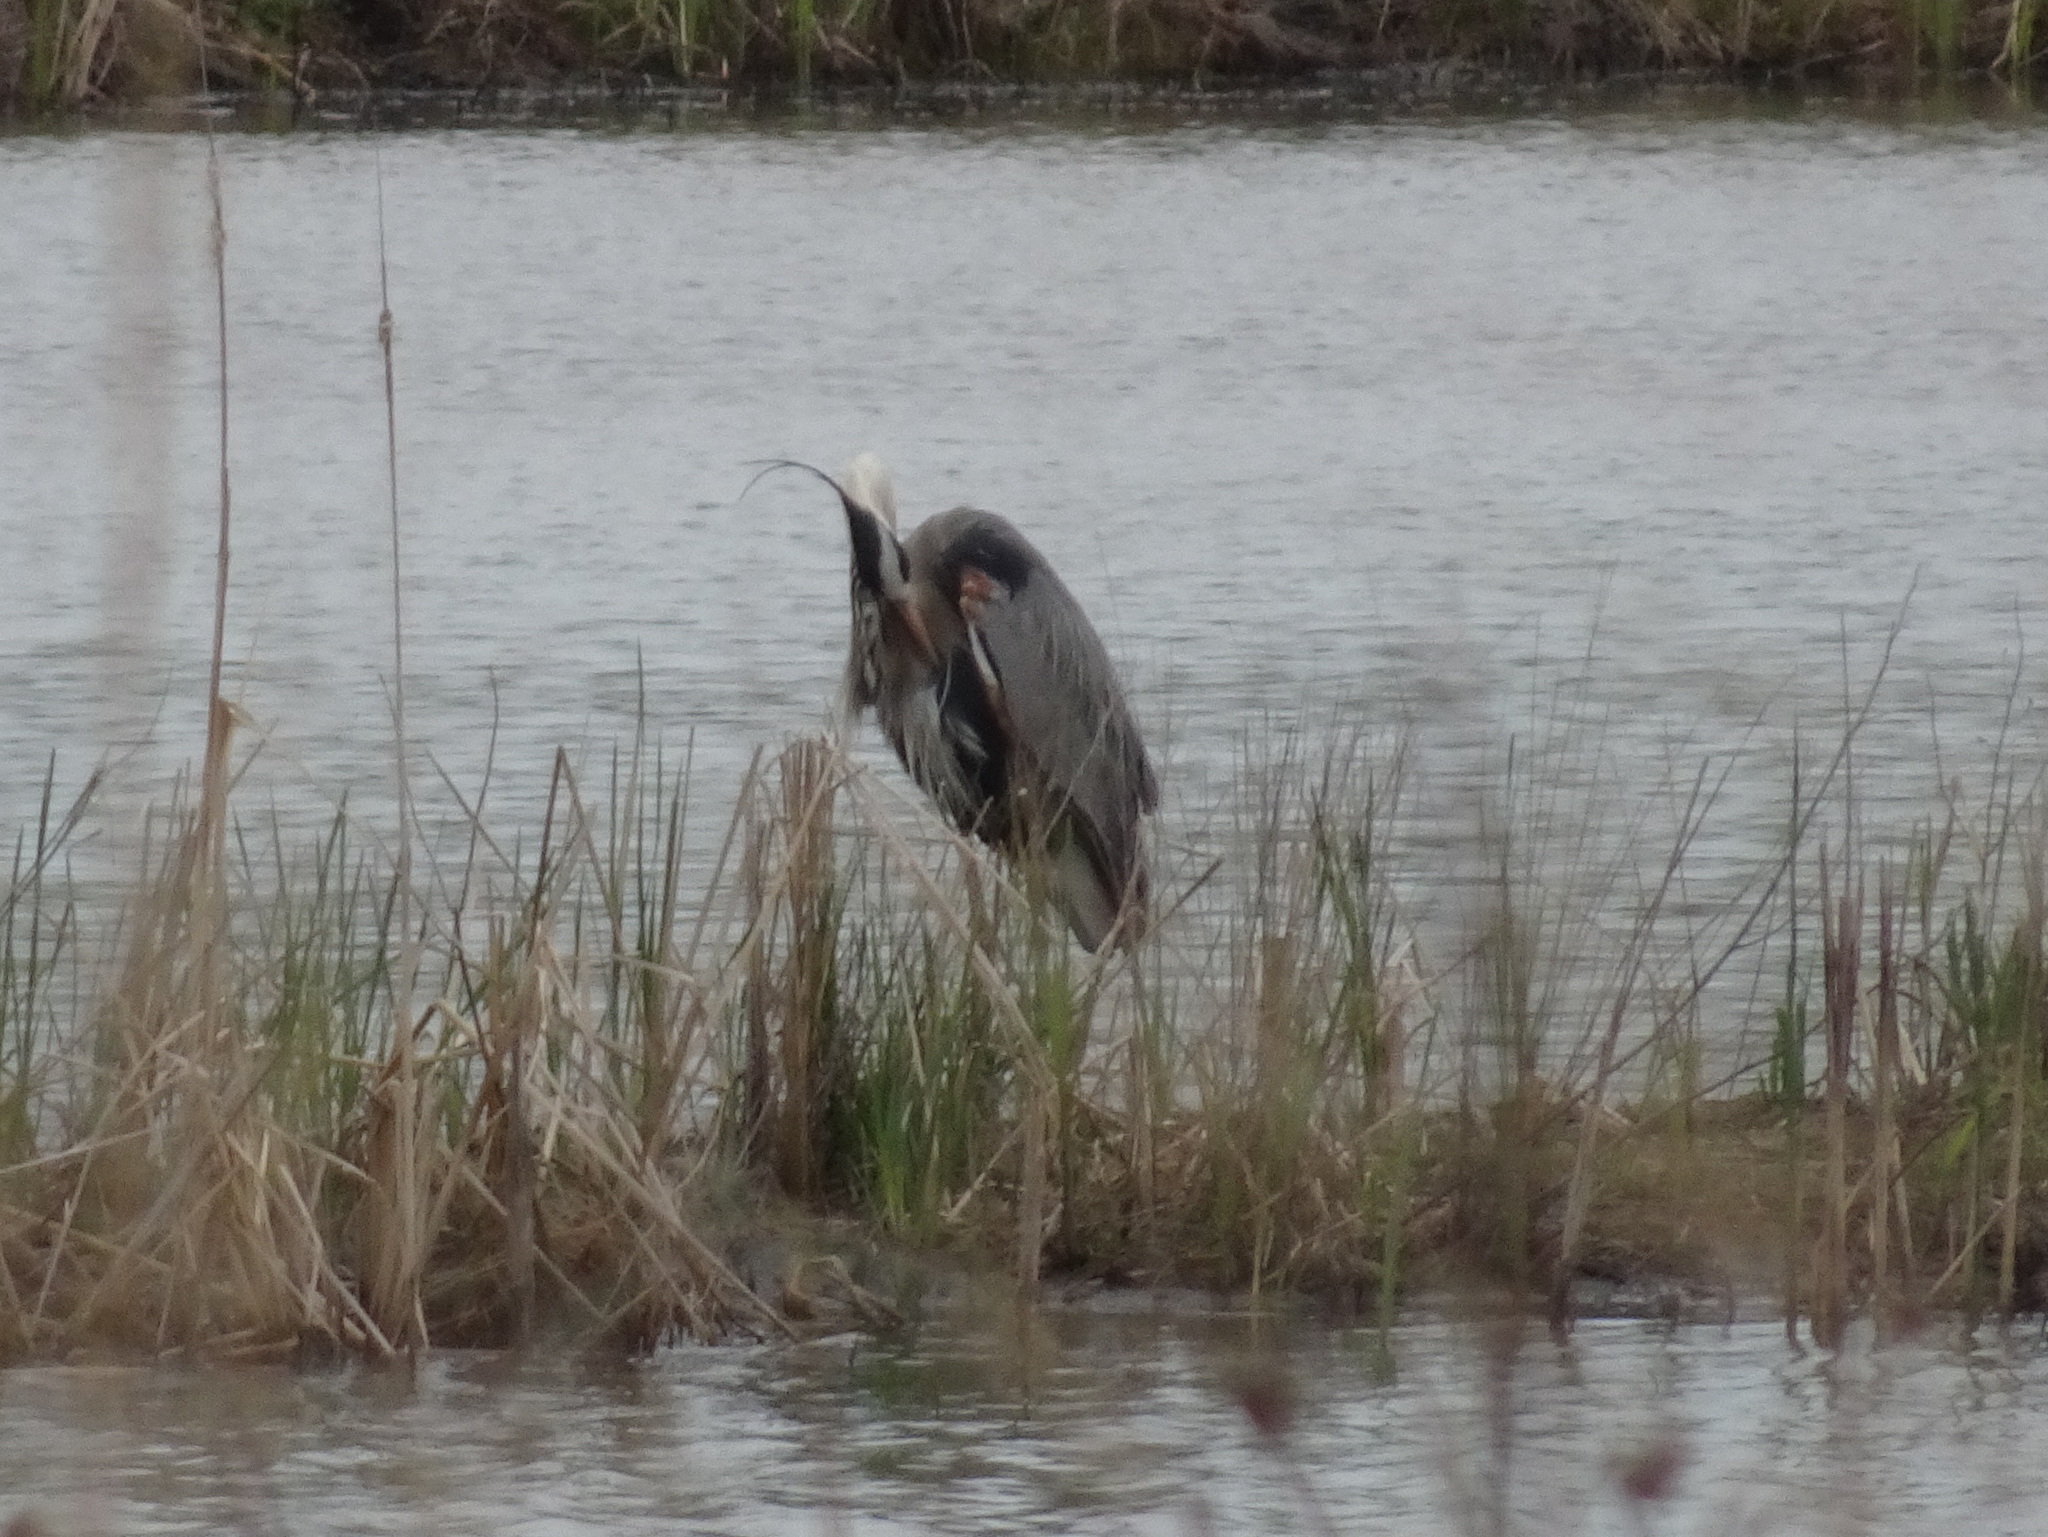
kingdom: Animalia
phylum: Chordata
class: Aves
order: Pelecaniformes
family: Ardeidae
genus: Ardea
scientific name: Ardea herodias
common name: Great blue heron
